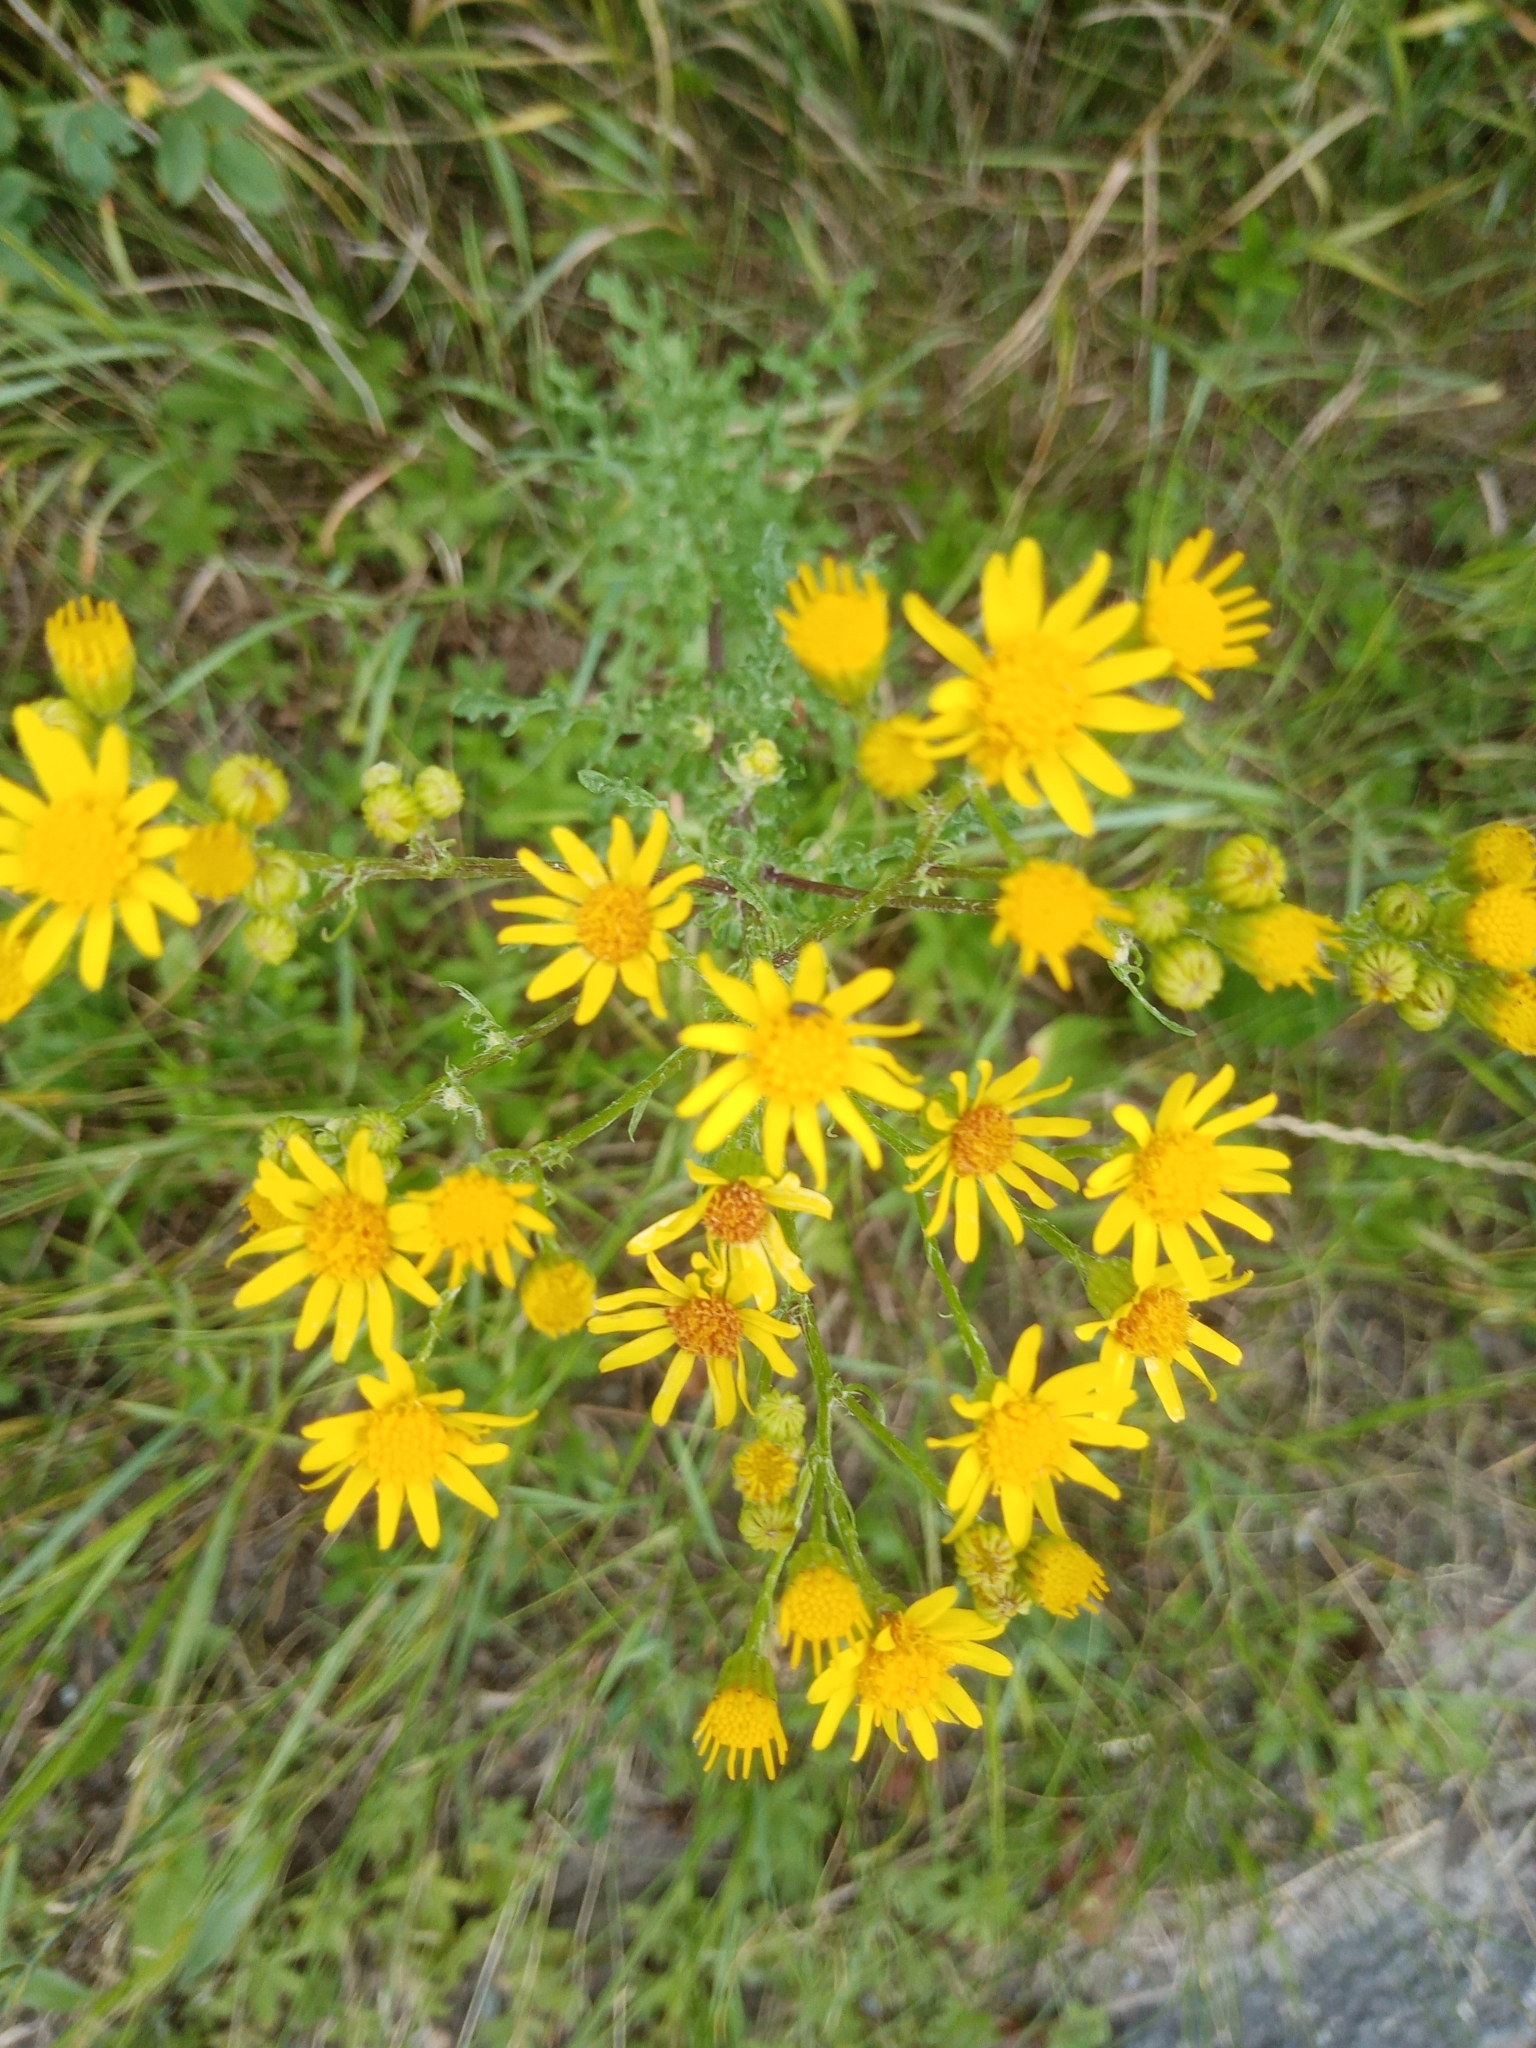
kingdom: Plantae
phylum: Tracheophyta
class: Magnoliopsida
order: Asterales
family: Asteraceae
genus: Jacobaea
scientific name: Jacobaea vulgaris
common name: Stinking willie
